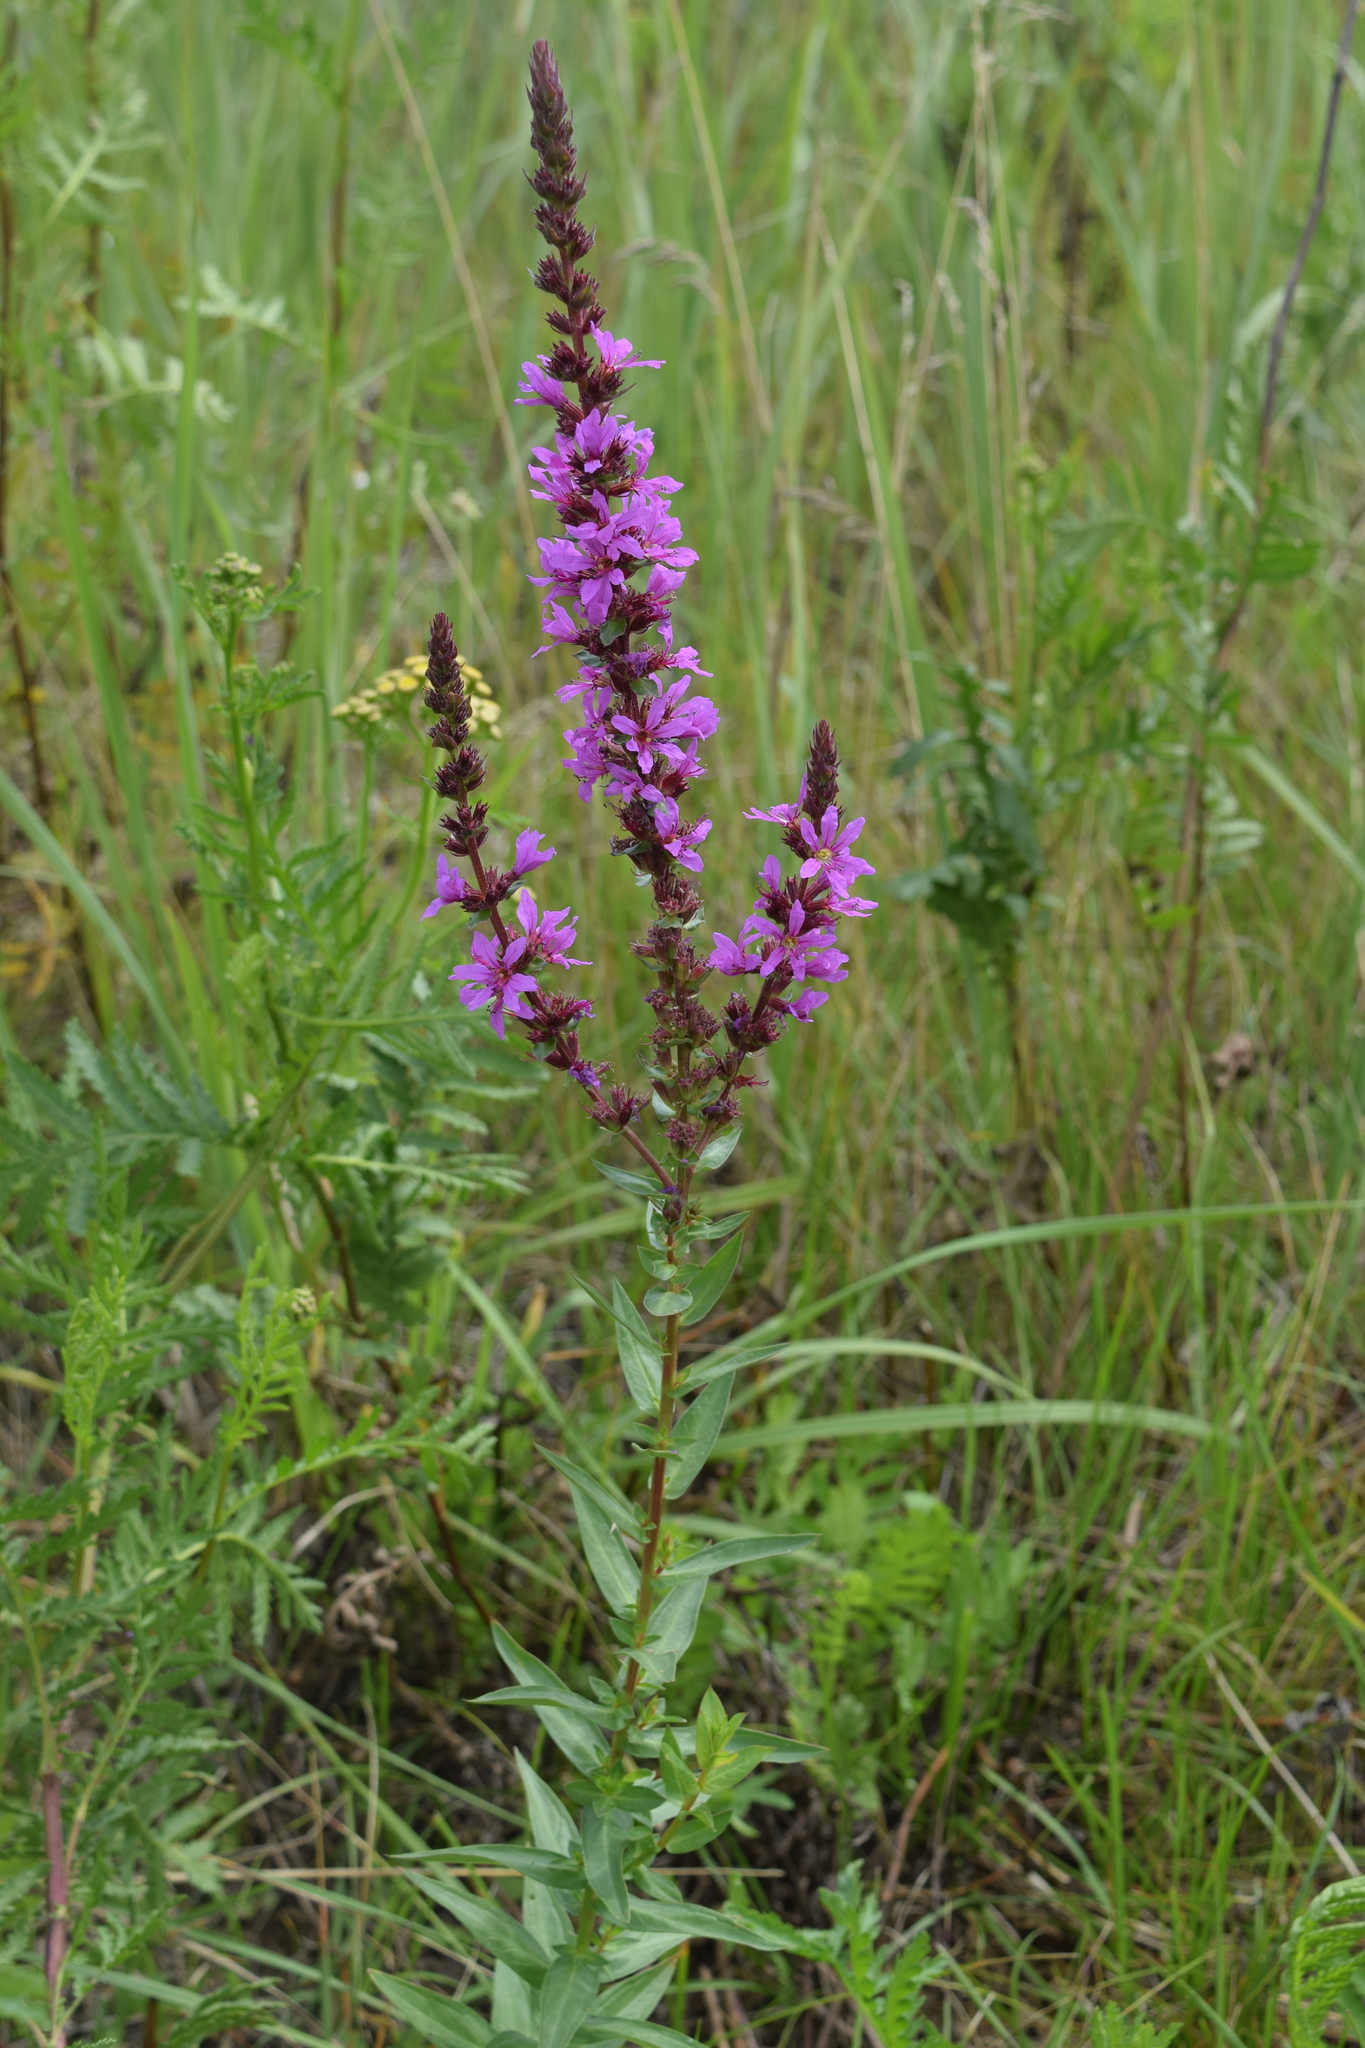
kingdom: Plantae
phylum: Tracheophyta
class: Magnoliopsida
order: Myrtales
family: Lythraceae
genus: Lythrum
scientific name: Lythrum salicaria
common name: Purple loosestrife
